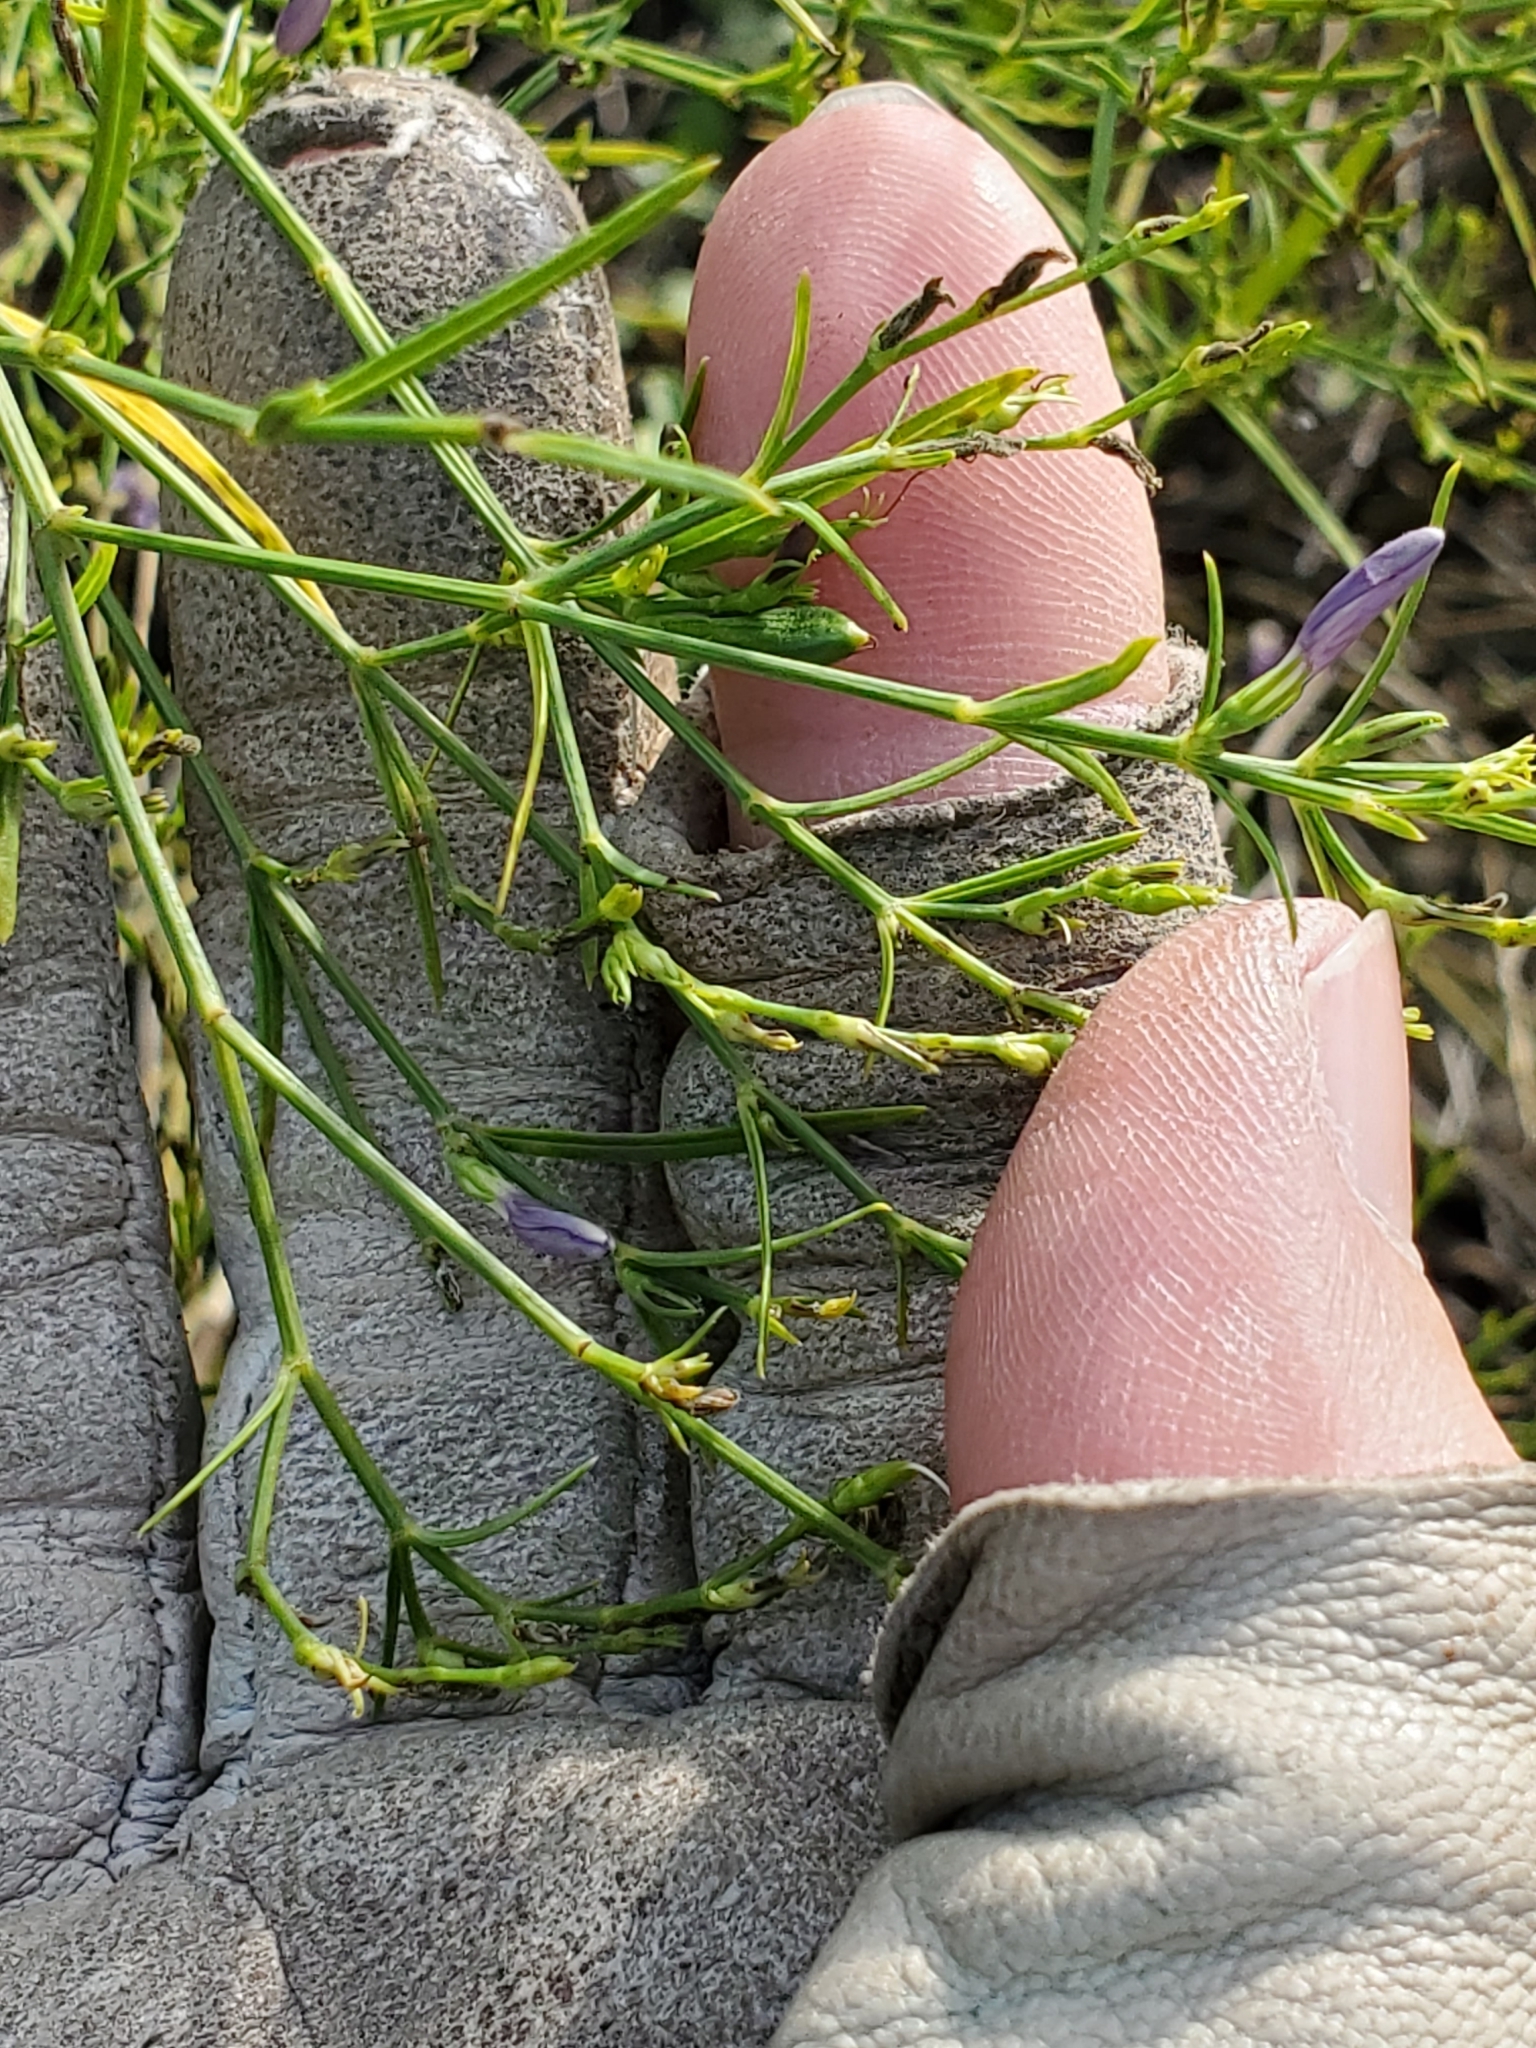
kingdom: Plantae
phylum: Tracheophyta
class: Magnoliopsida
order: Lamiales
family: Acanthaceae
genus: Carlowrightia
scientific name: Carlowrightia linearifolia
